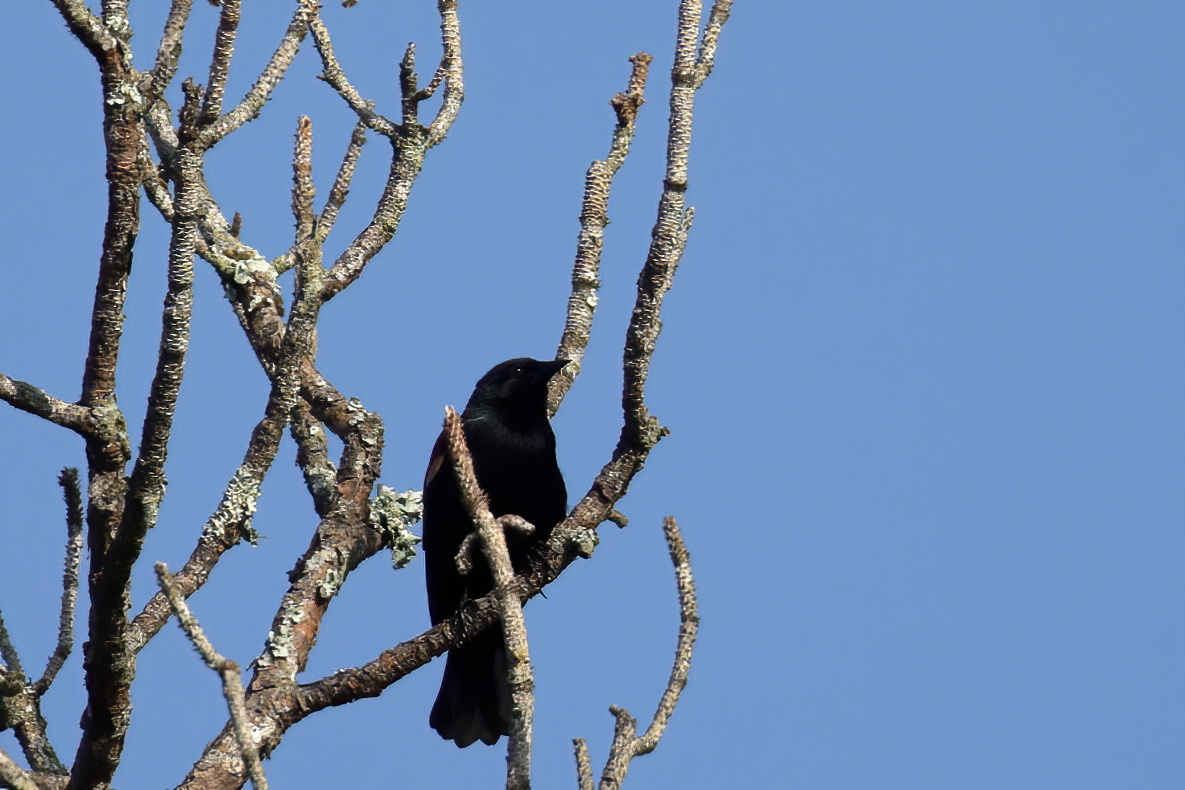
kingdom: Animalia
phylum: Chordata
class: Aves
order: Passeriformes
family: Icteridae
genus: Agelaius
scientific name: Agelaius phoeniceus
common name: Red-winged blackbird
